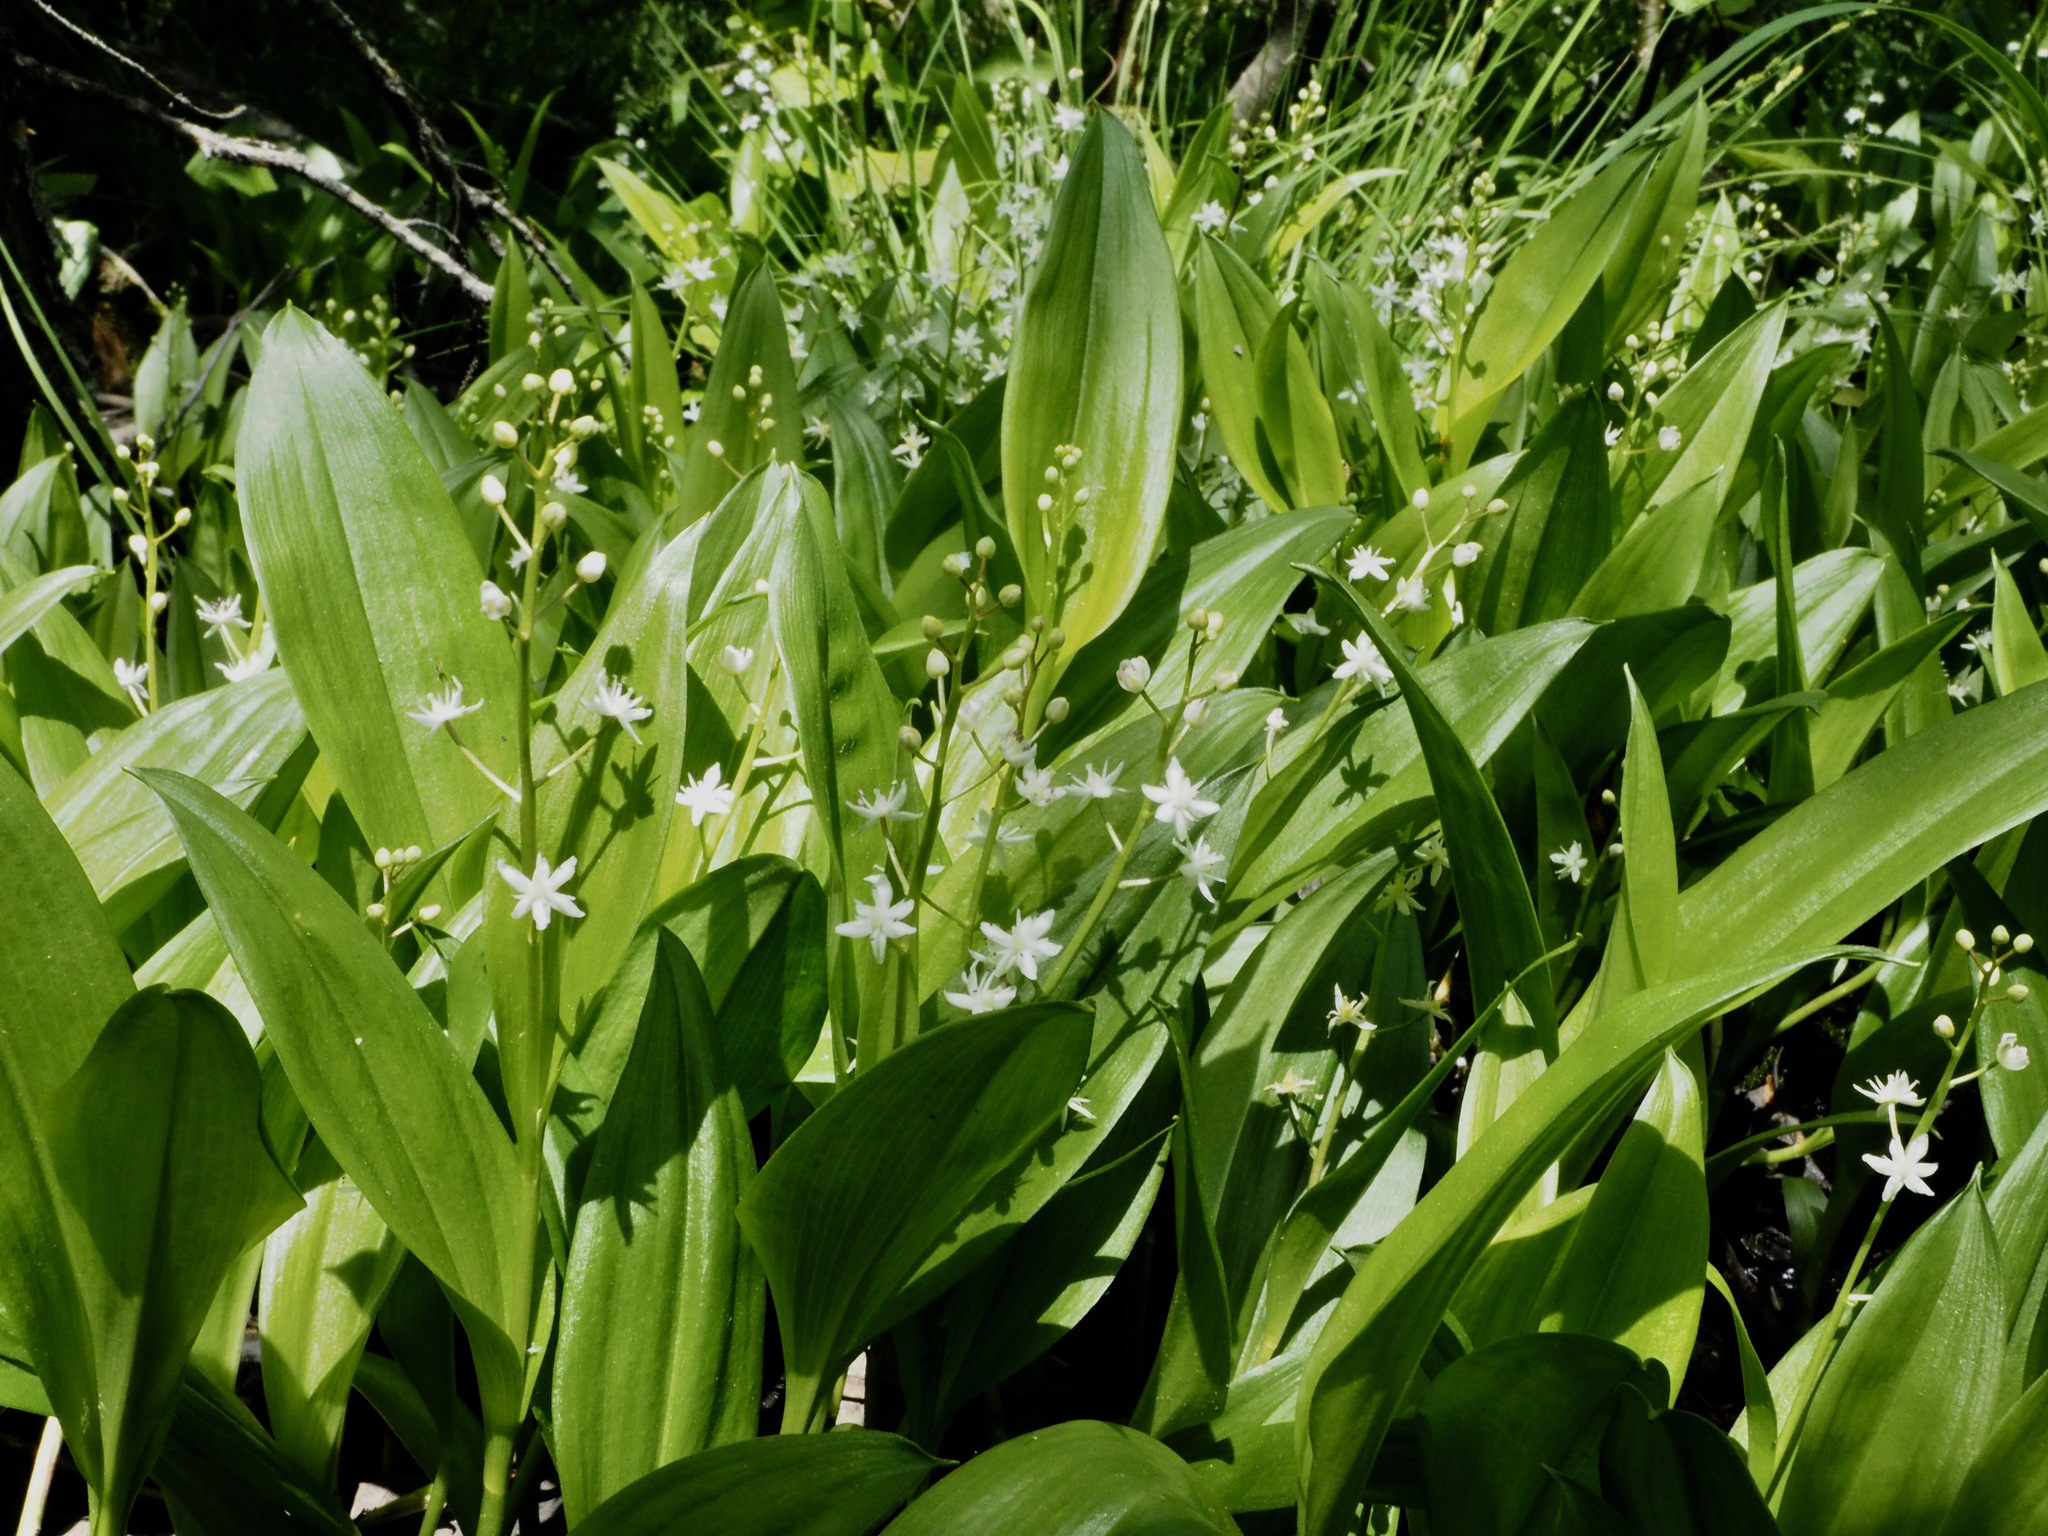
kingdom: Plantae
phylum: Tracheophyta
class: Liliopsida
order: Asparagales
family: Asparagaceae
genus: Maianthemum
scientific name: Maianthemum trifolium
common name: Swamp false solomon's seal
